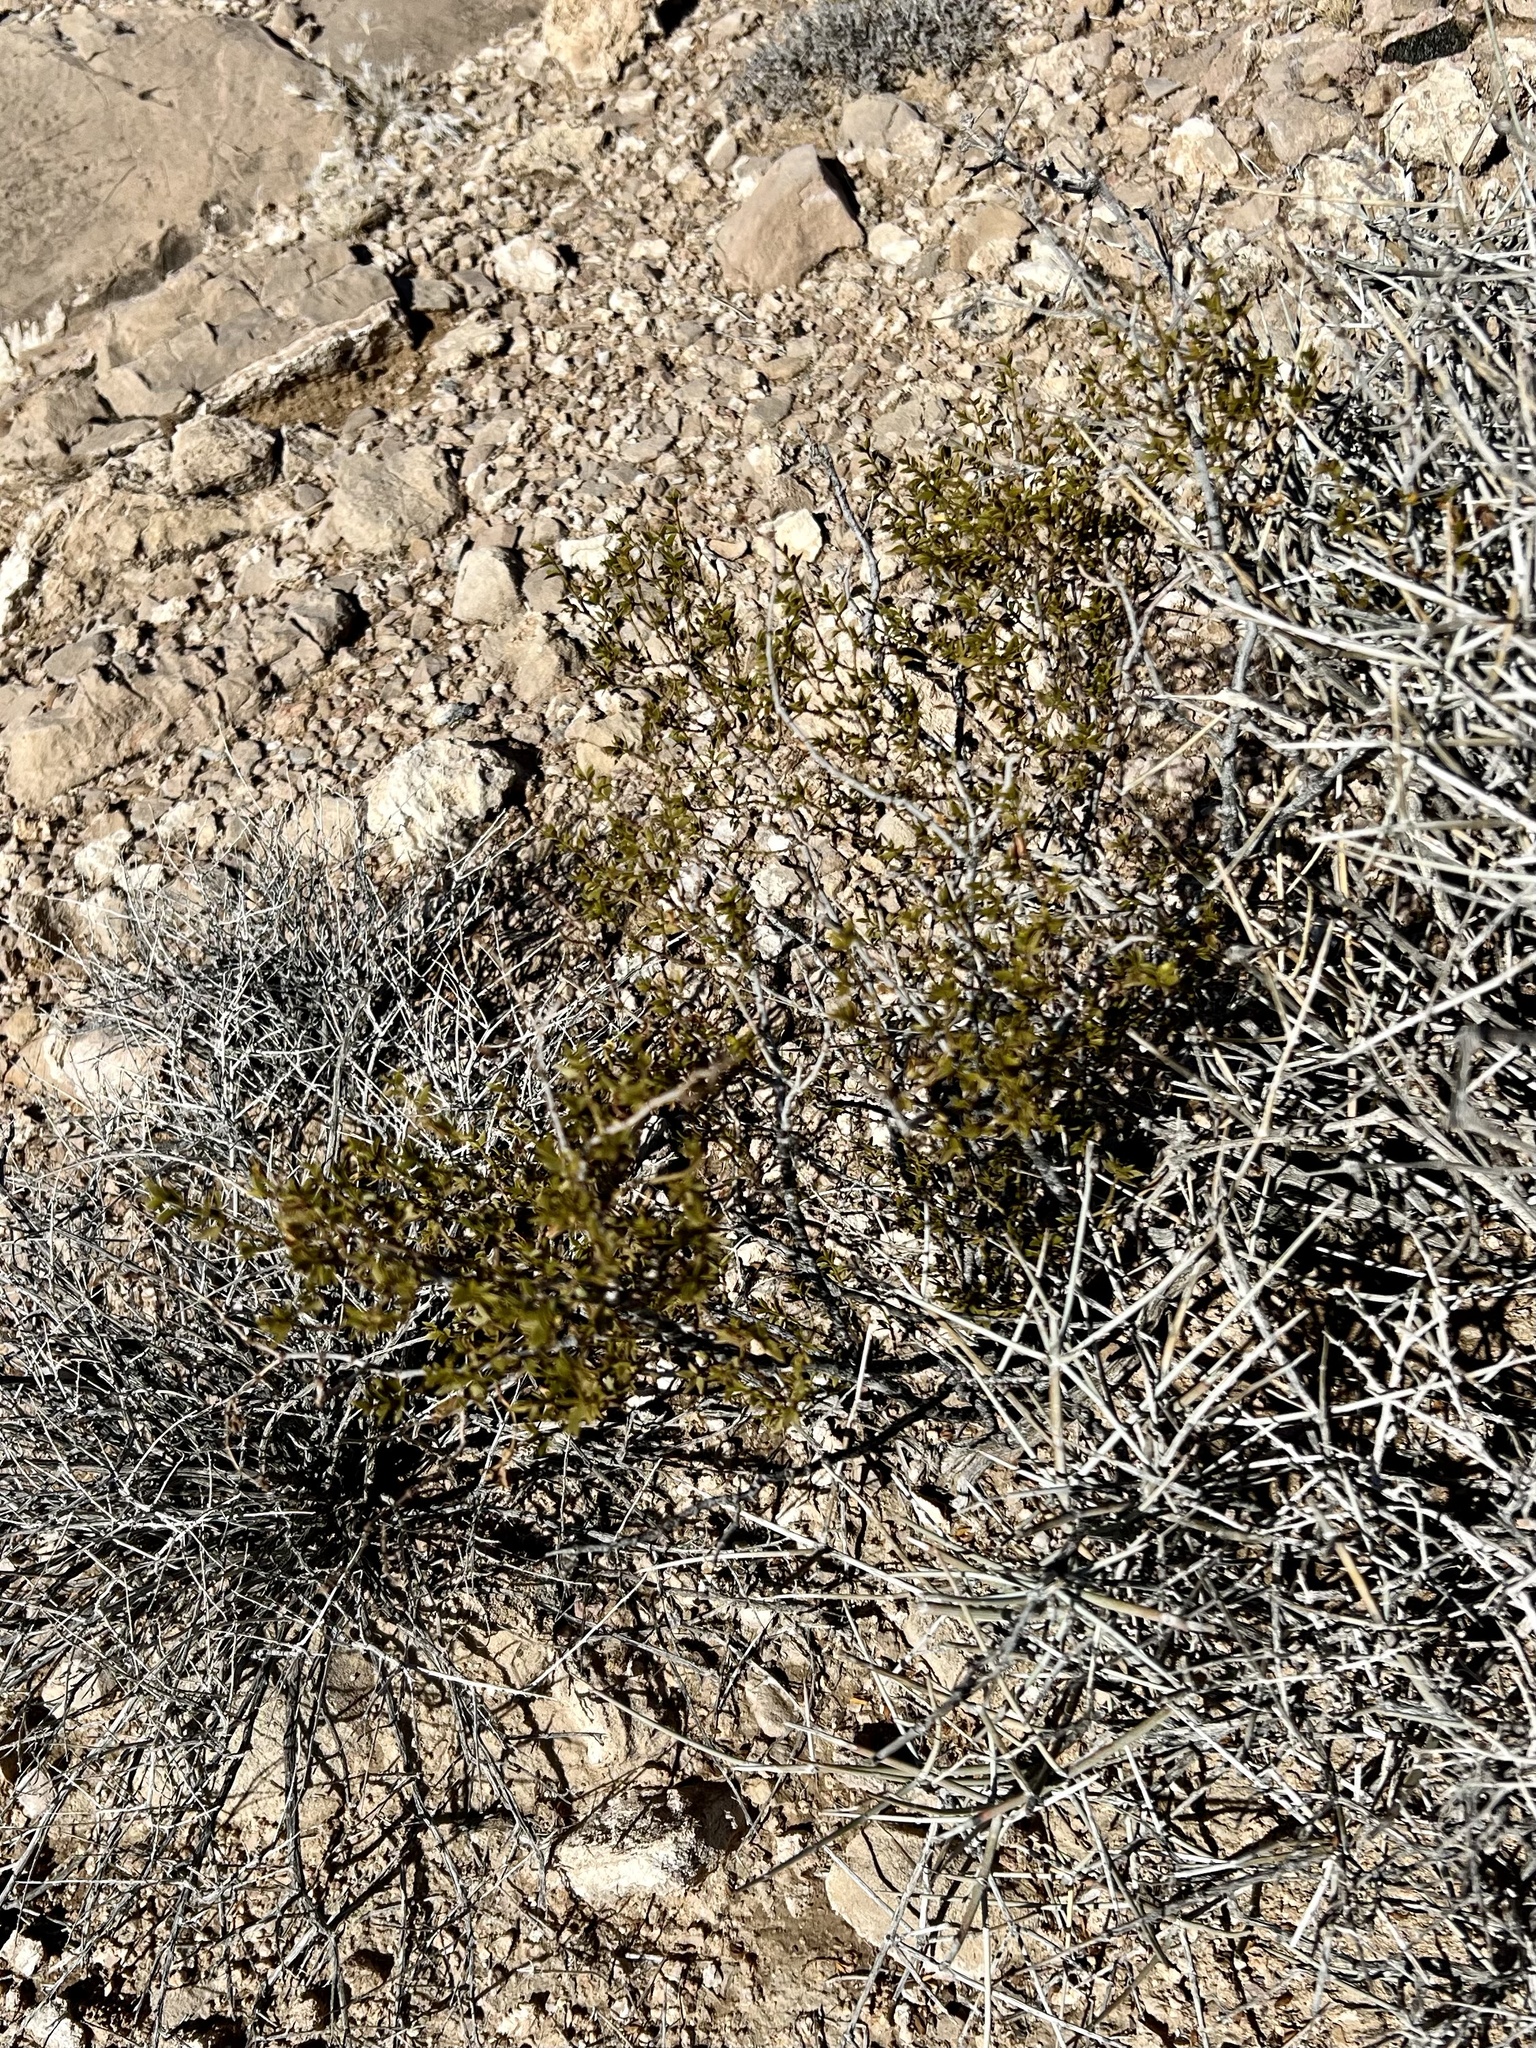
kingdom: Plantae
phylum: Tracheophyta
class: Magnoliopsida
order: Zygophyllales
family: Zygophyllaceae
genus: Larrea
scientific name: Larrea tridentata
